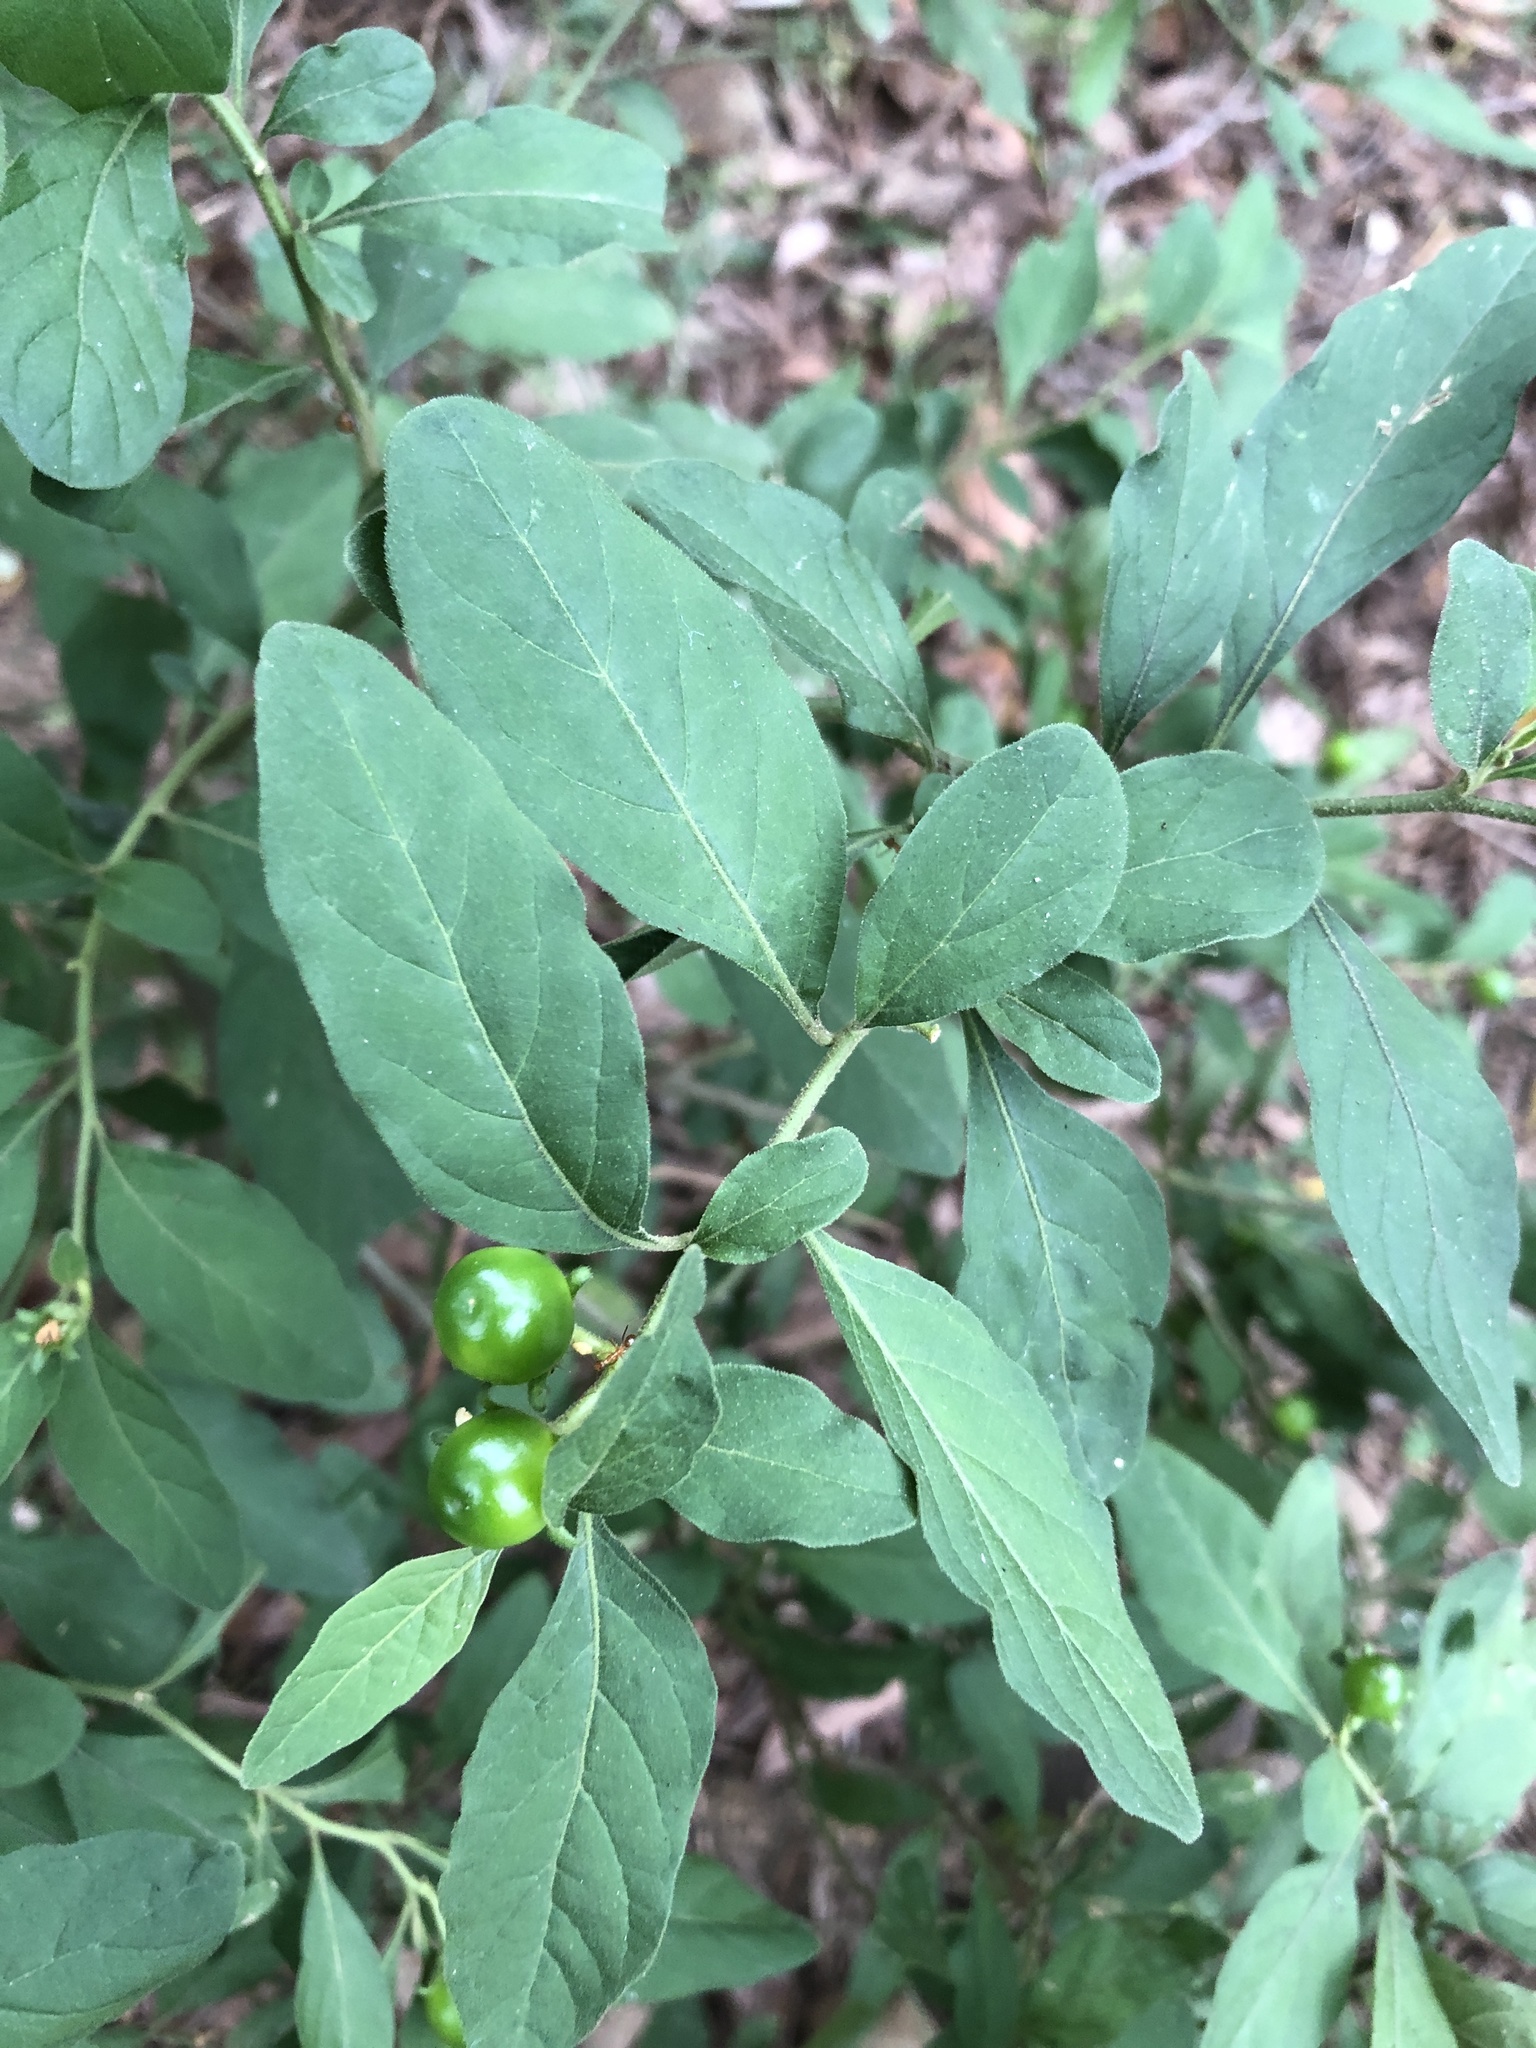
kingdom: Plantae
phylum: Tracheophyta
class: Magnoliopsida
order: Solanales
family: Solanaceae
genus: Solanum
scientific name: Solanum pseudocapsicum
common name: Jerusalem cherry
